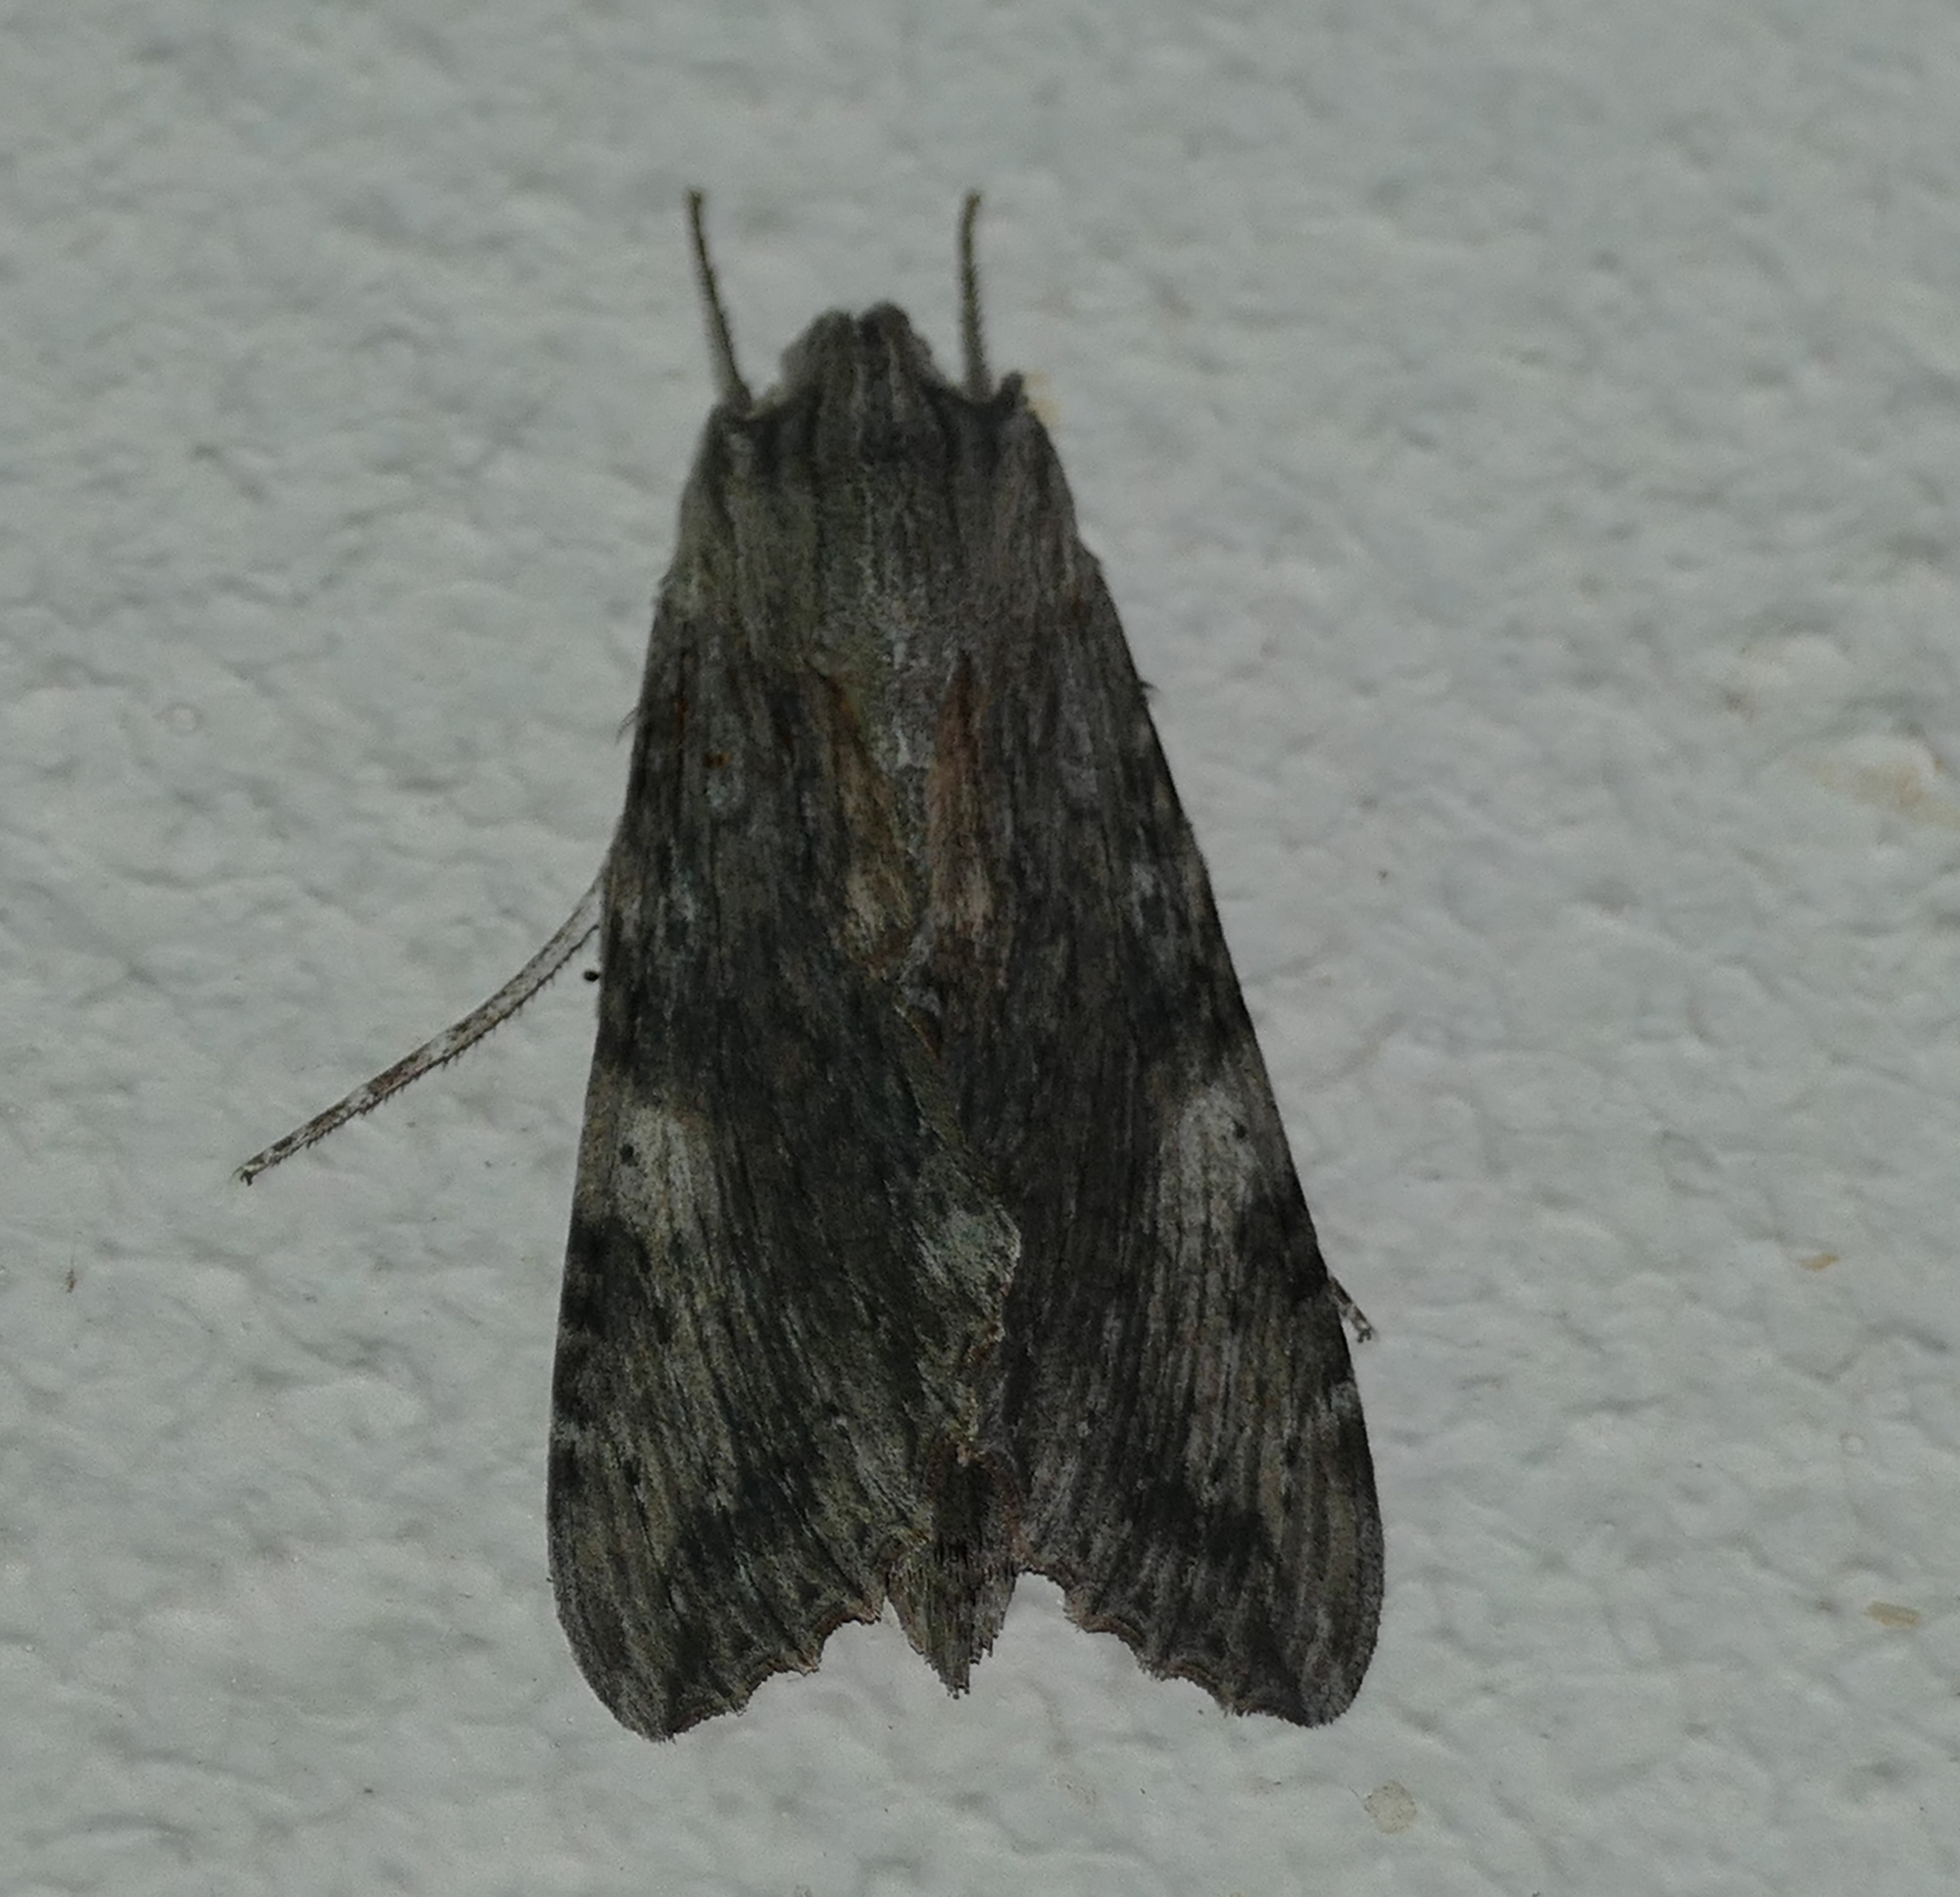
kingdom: Animalia
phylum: Arthropoda
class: Insecta
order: Lepidoptera
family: Sphingidae
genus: Erinnyis
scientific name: Erinnyis obscura
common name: Obscure sphinx
